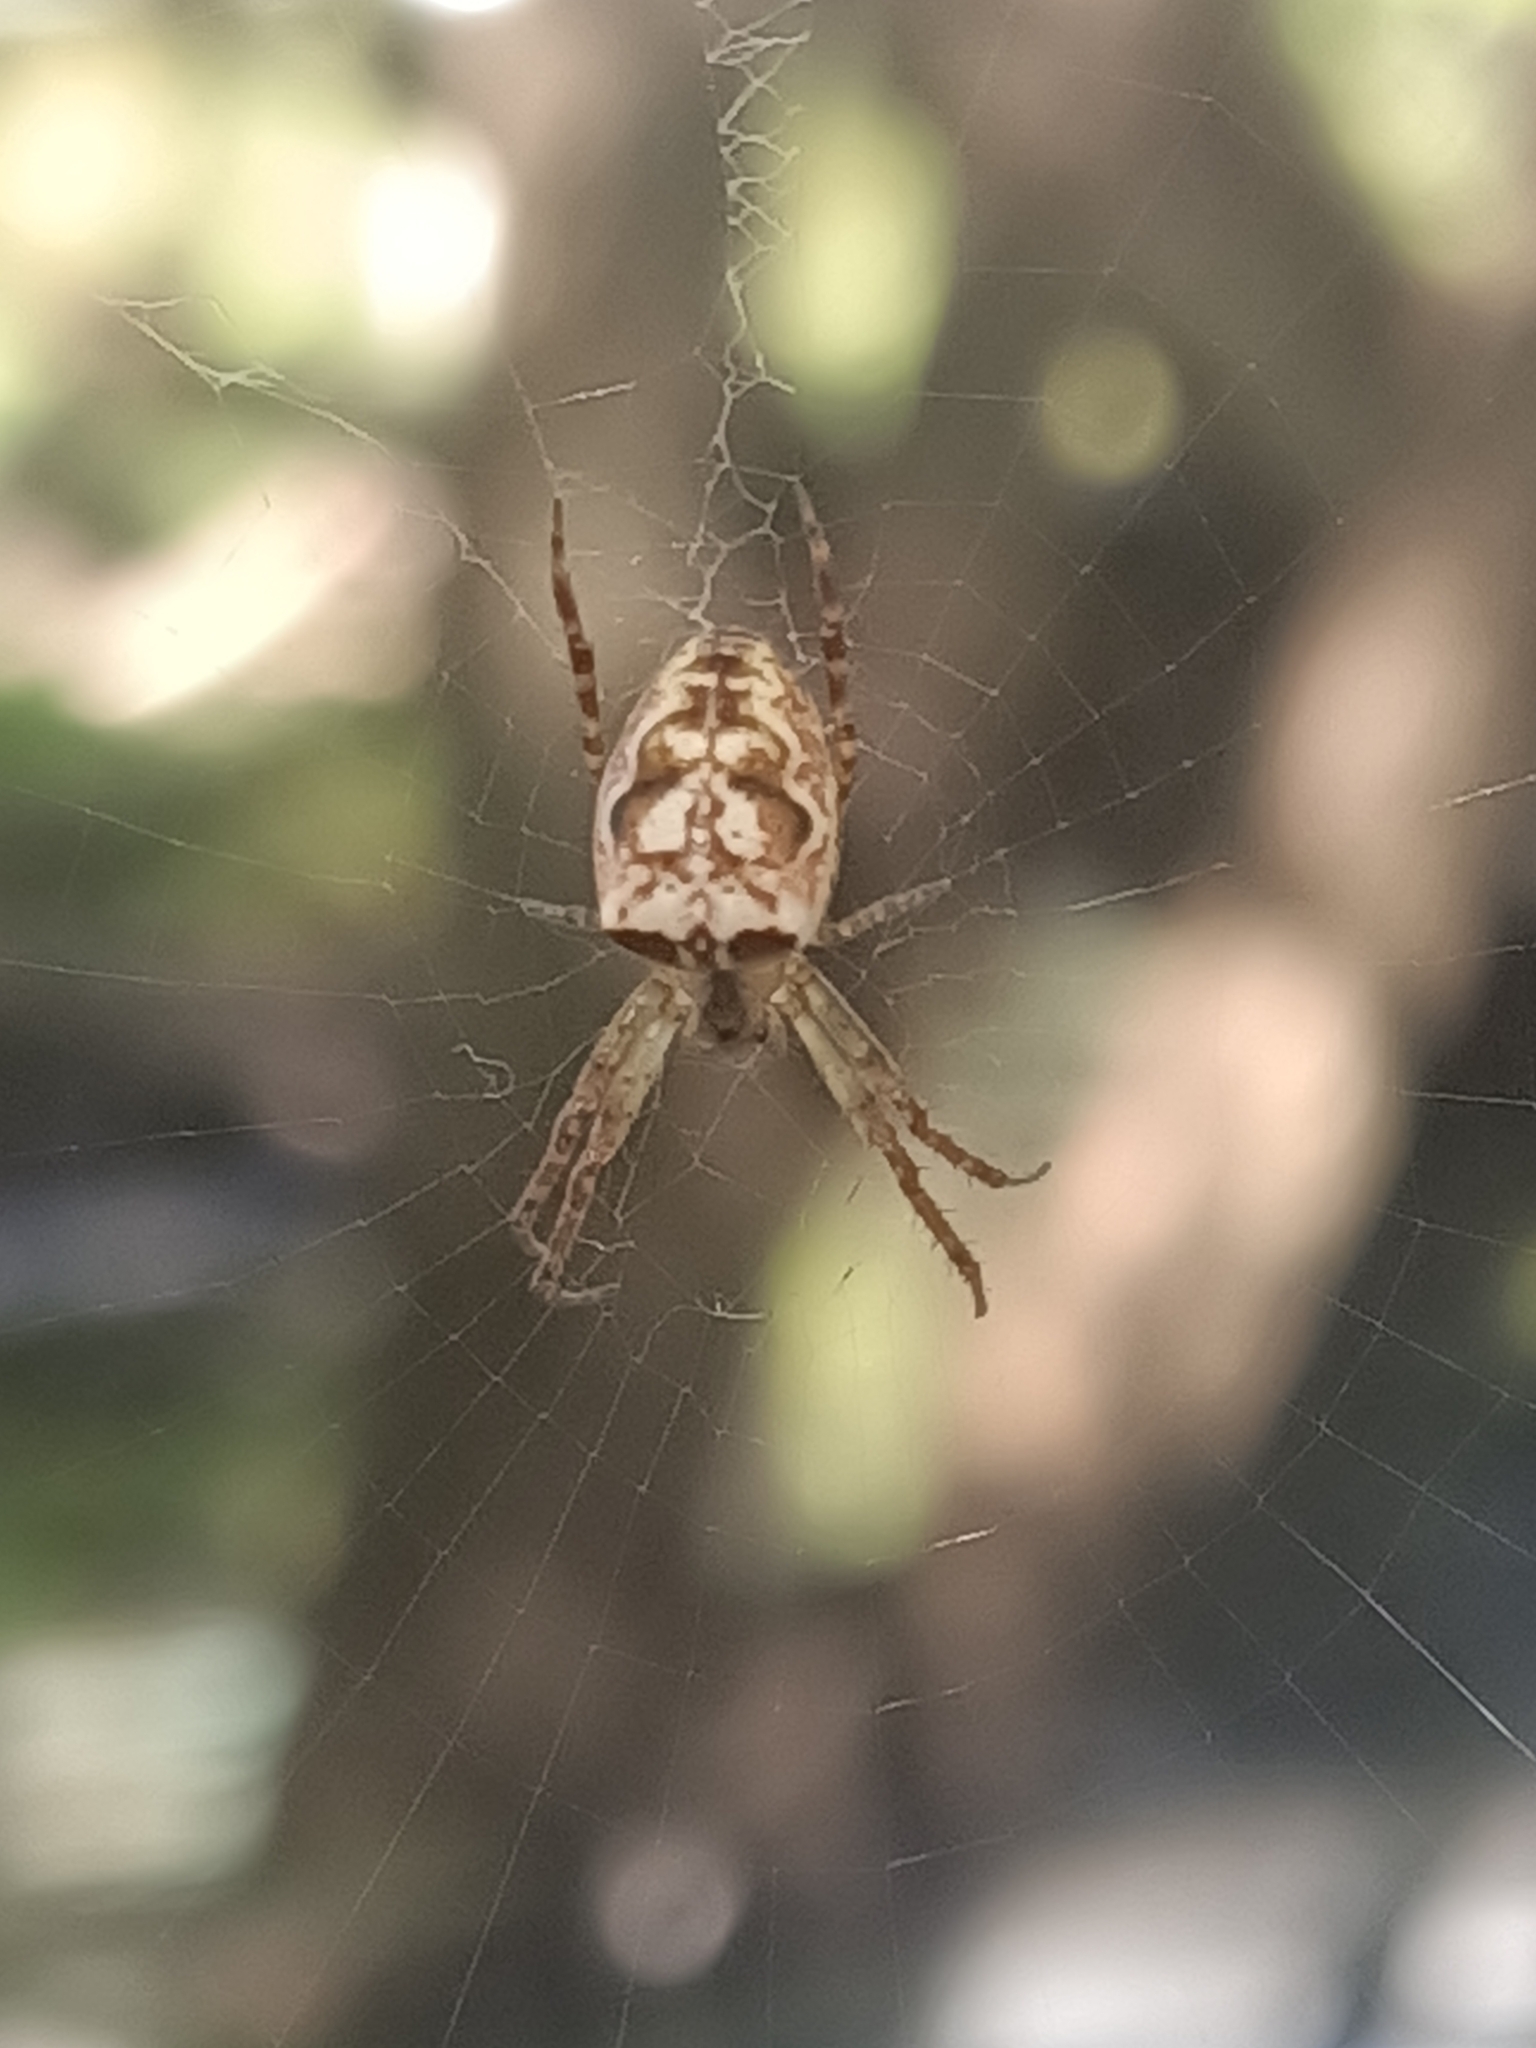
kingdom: Animalia
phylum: Arthropoda
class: Arachnida
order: Araneae
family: Araneidae
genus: Plebs
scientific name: Plebs eburnus
